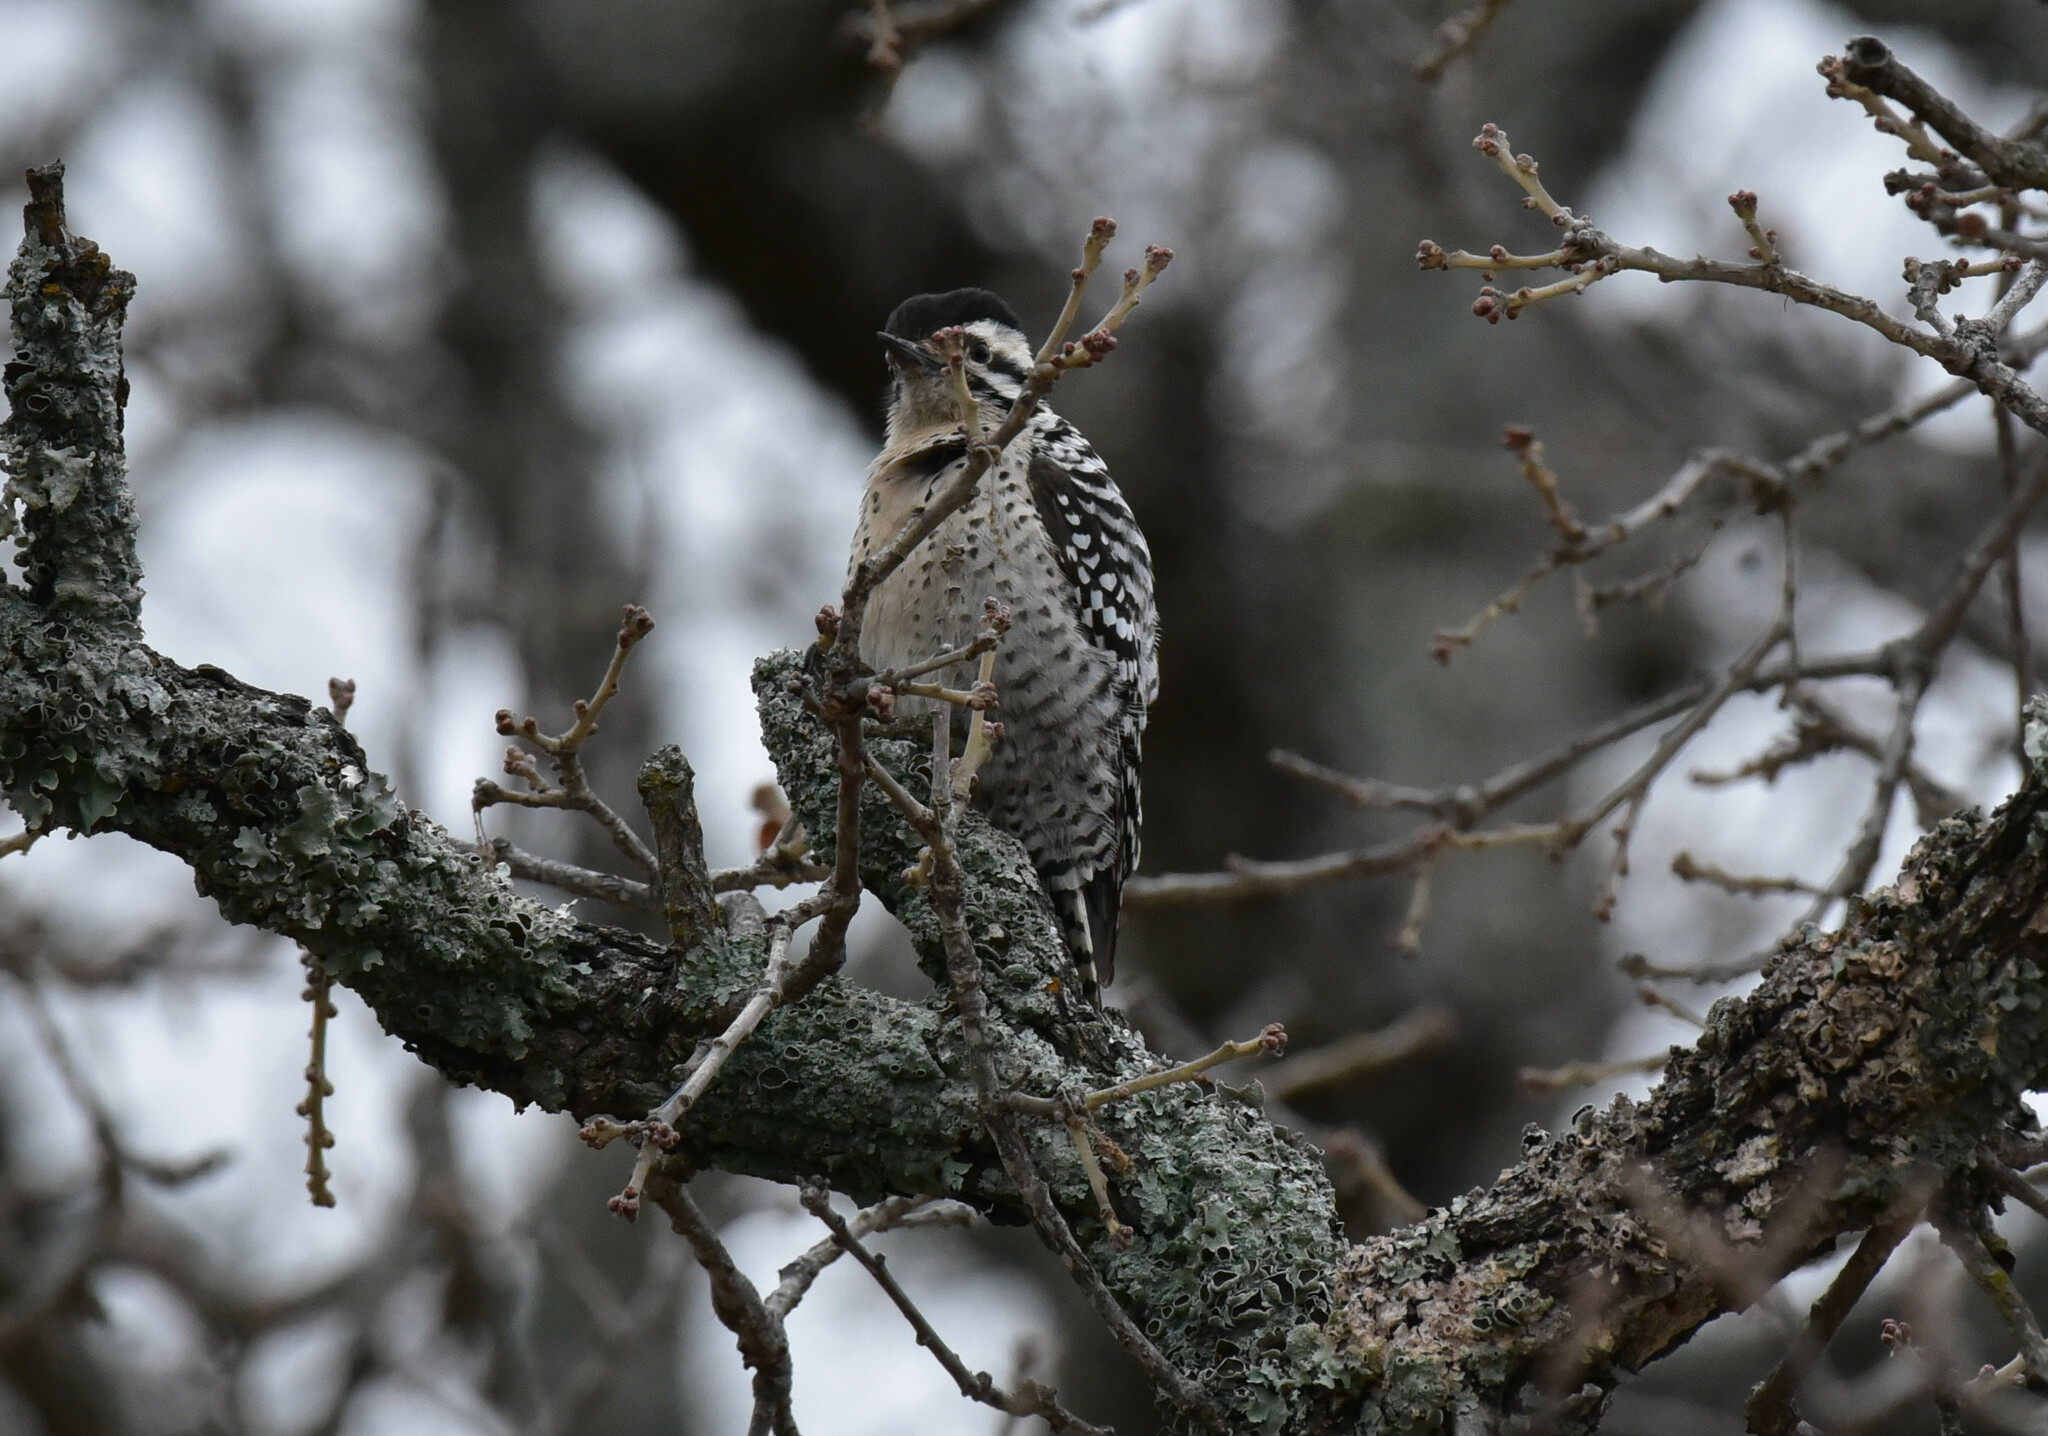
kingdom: Animalia
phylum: Chordata
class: Aves
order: Piciformes
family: Picidae
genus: Dryobates
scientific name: Dryobates scalaris
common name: Ladder-backed woodpecker
